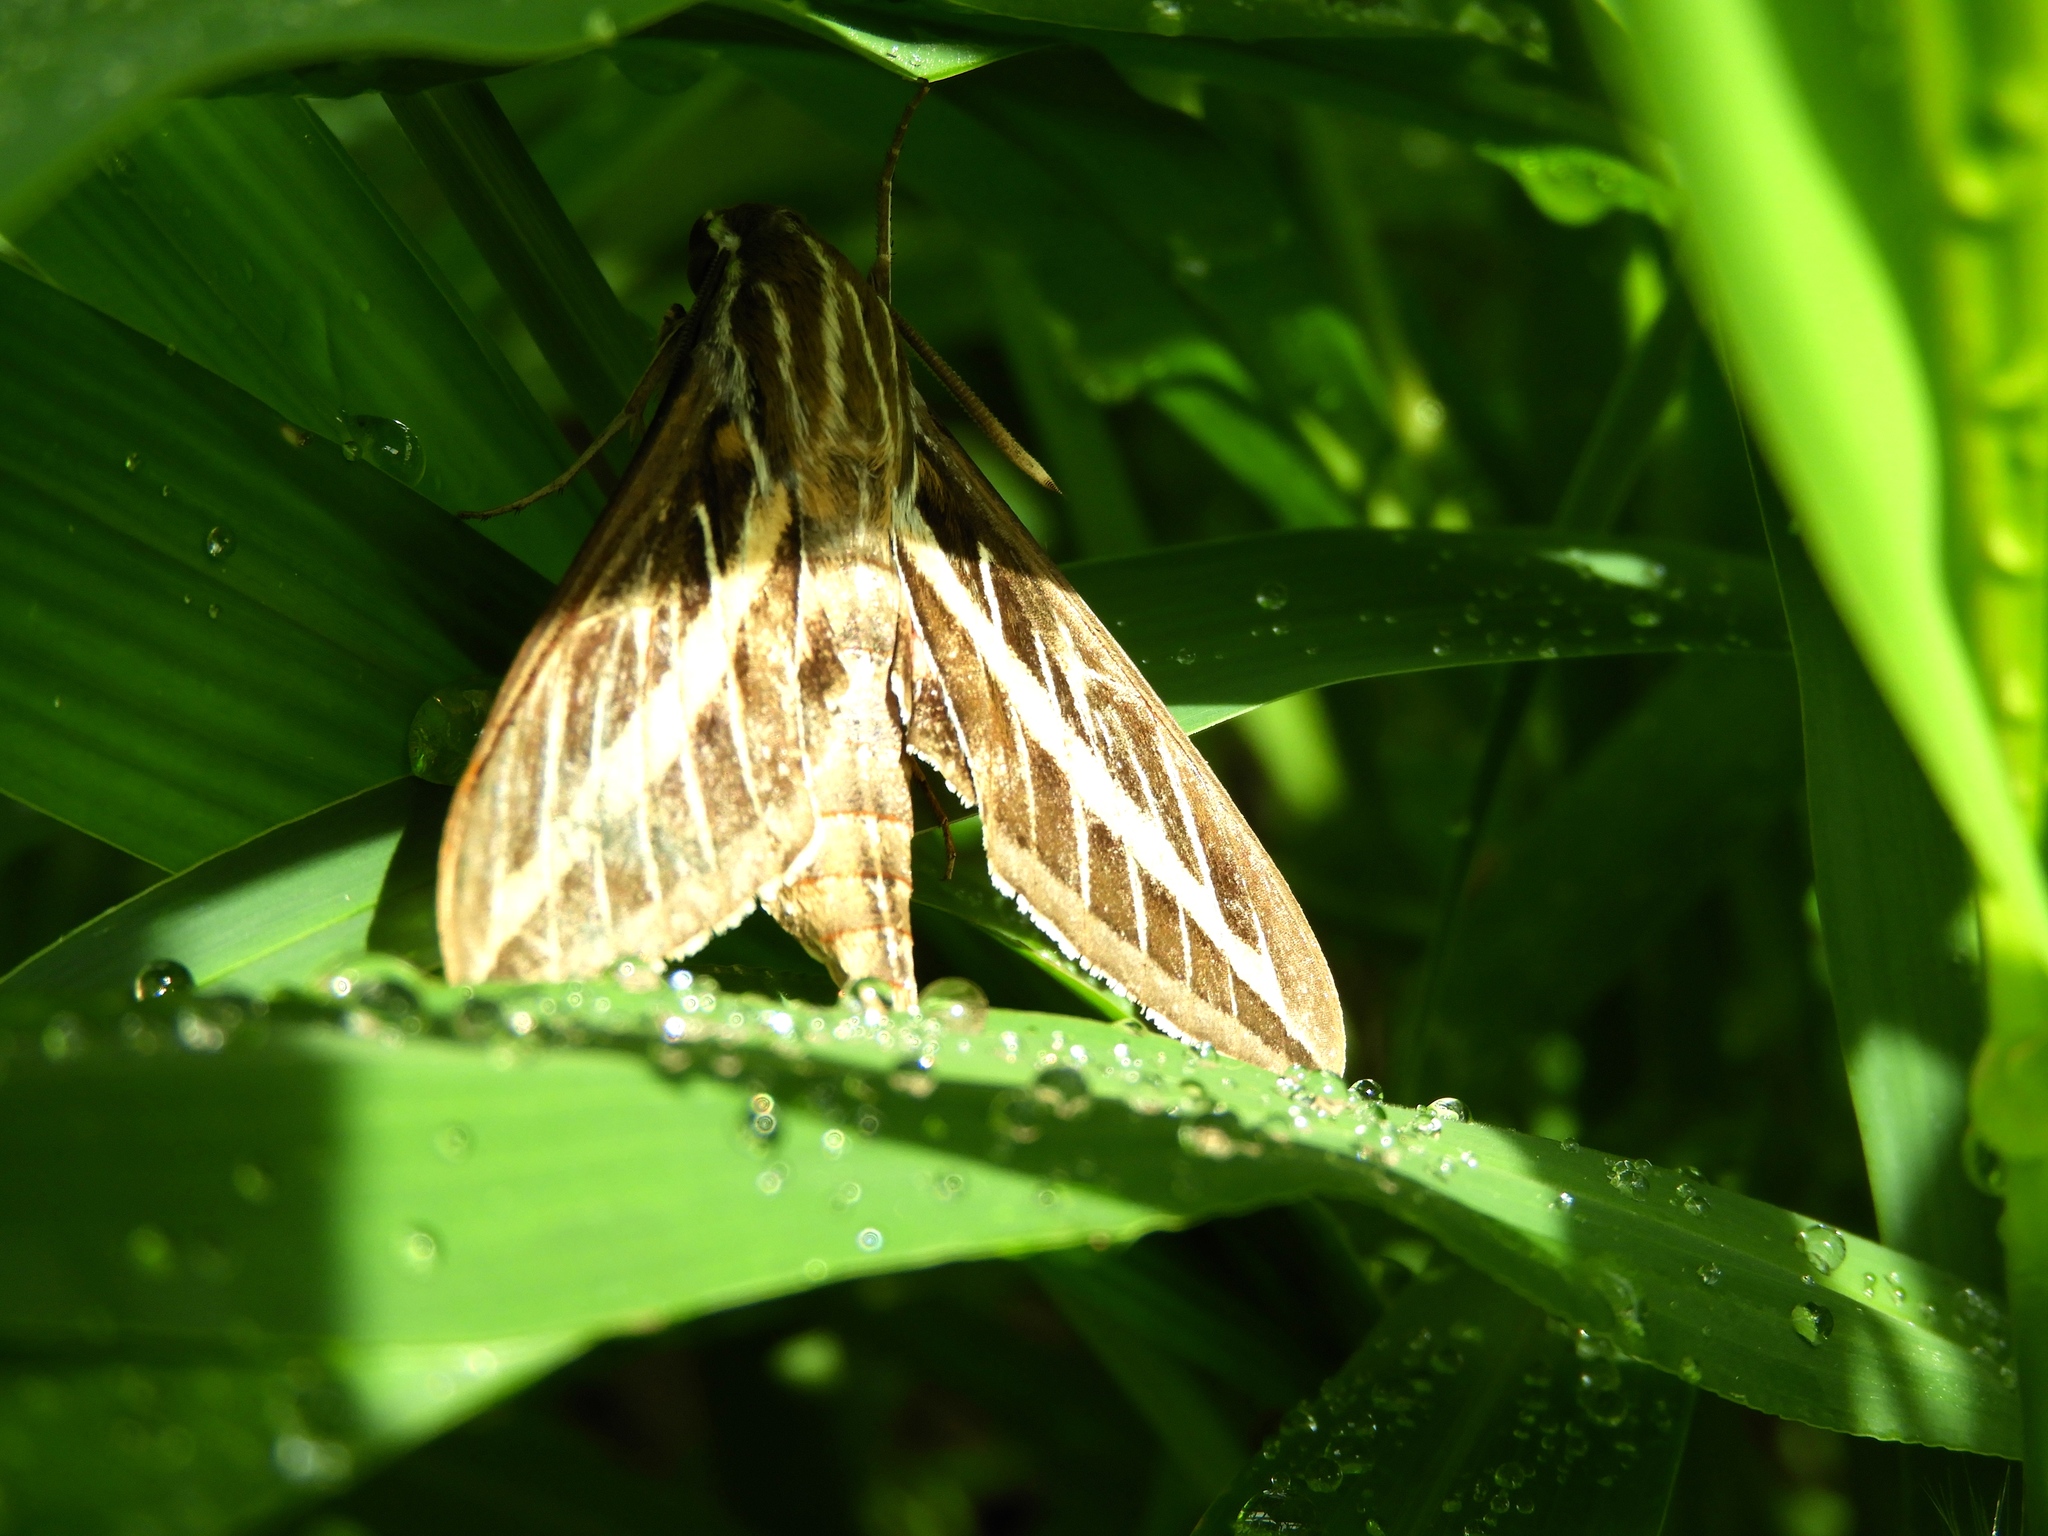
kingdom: Animalia
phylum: Arthropoda
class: Insecta
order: Lepidoptera
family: Sphingidae
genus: Hyles
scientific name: Hyles lineata
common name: White-lined sphinx
